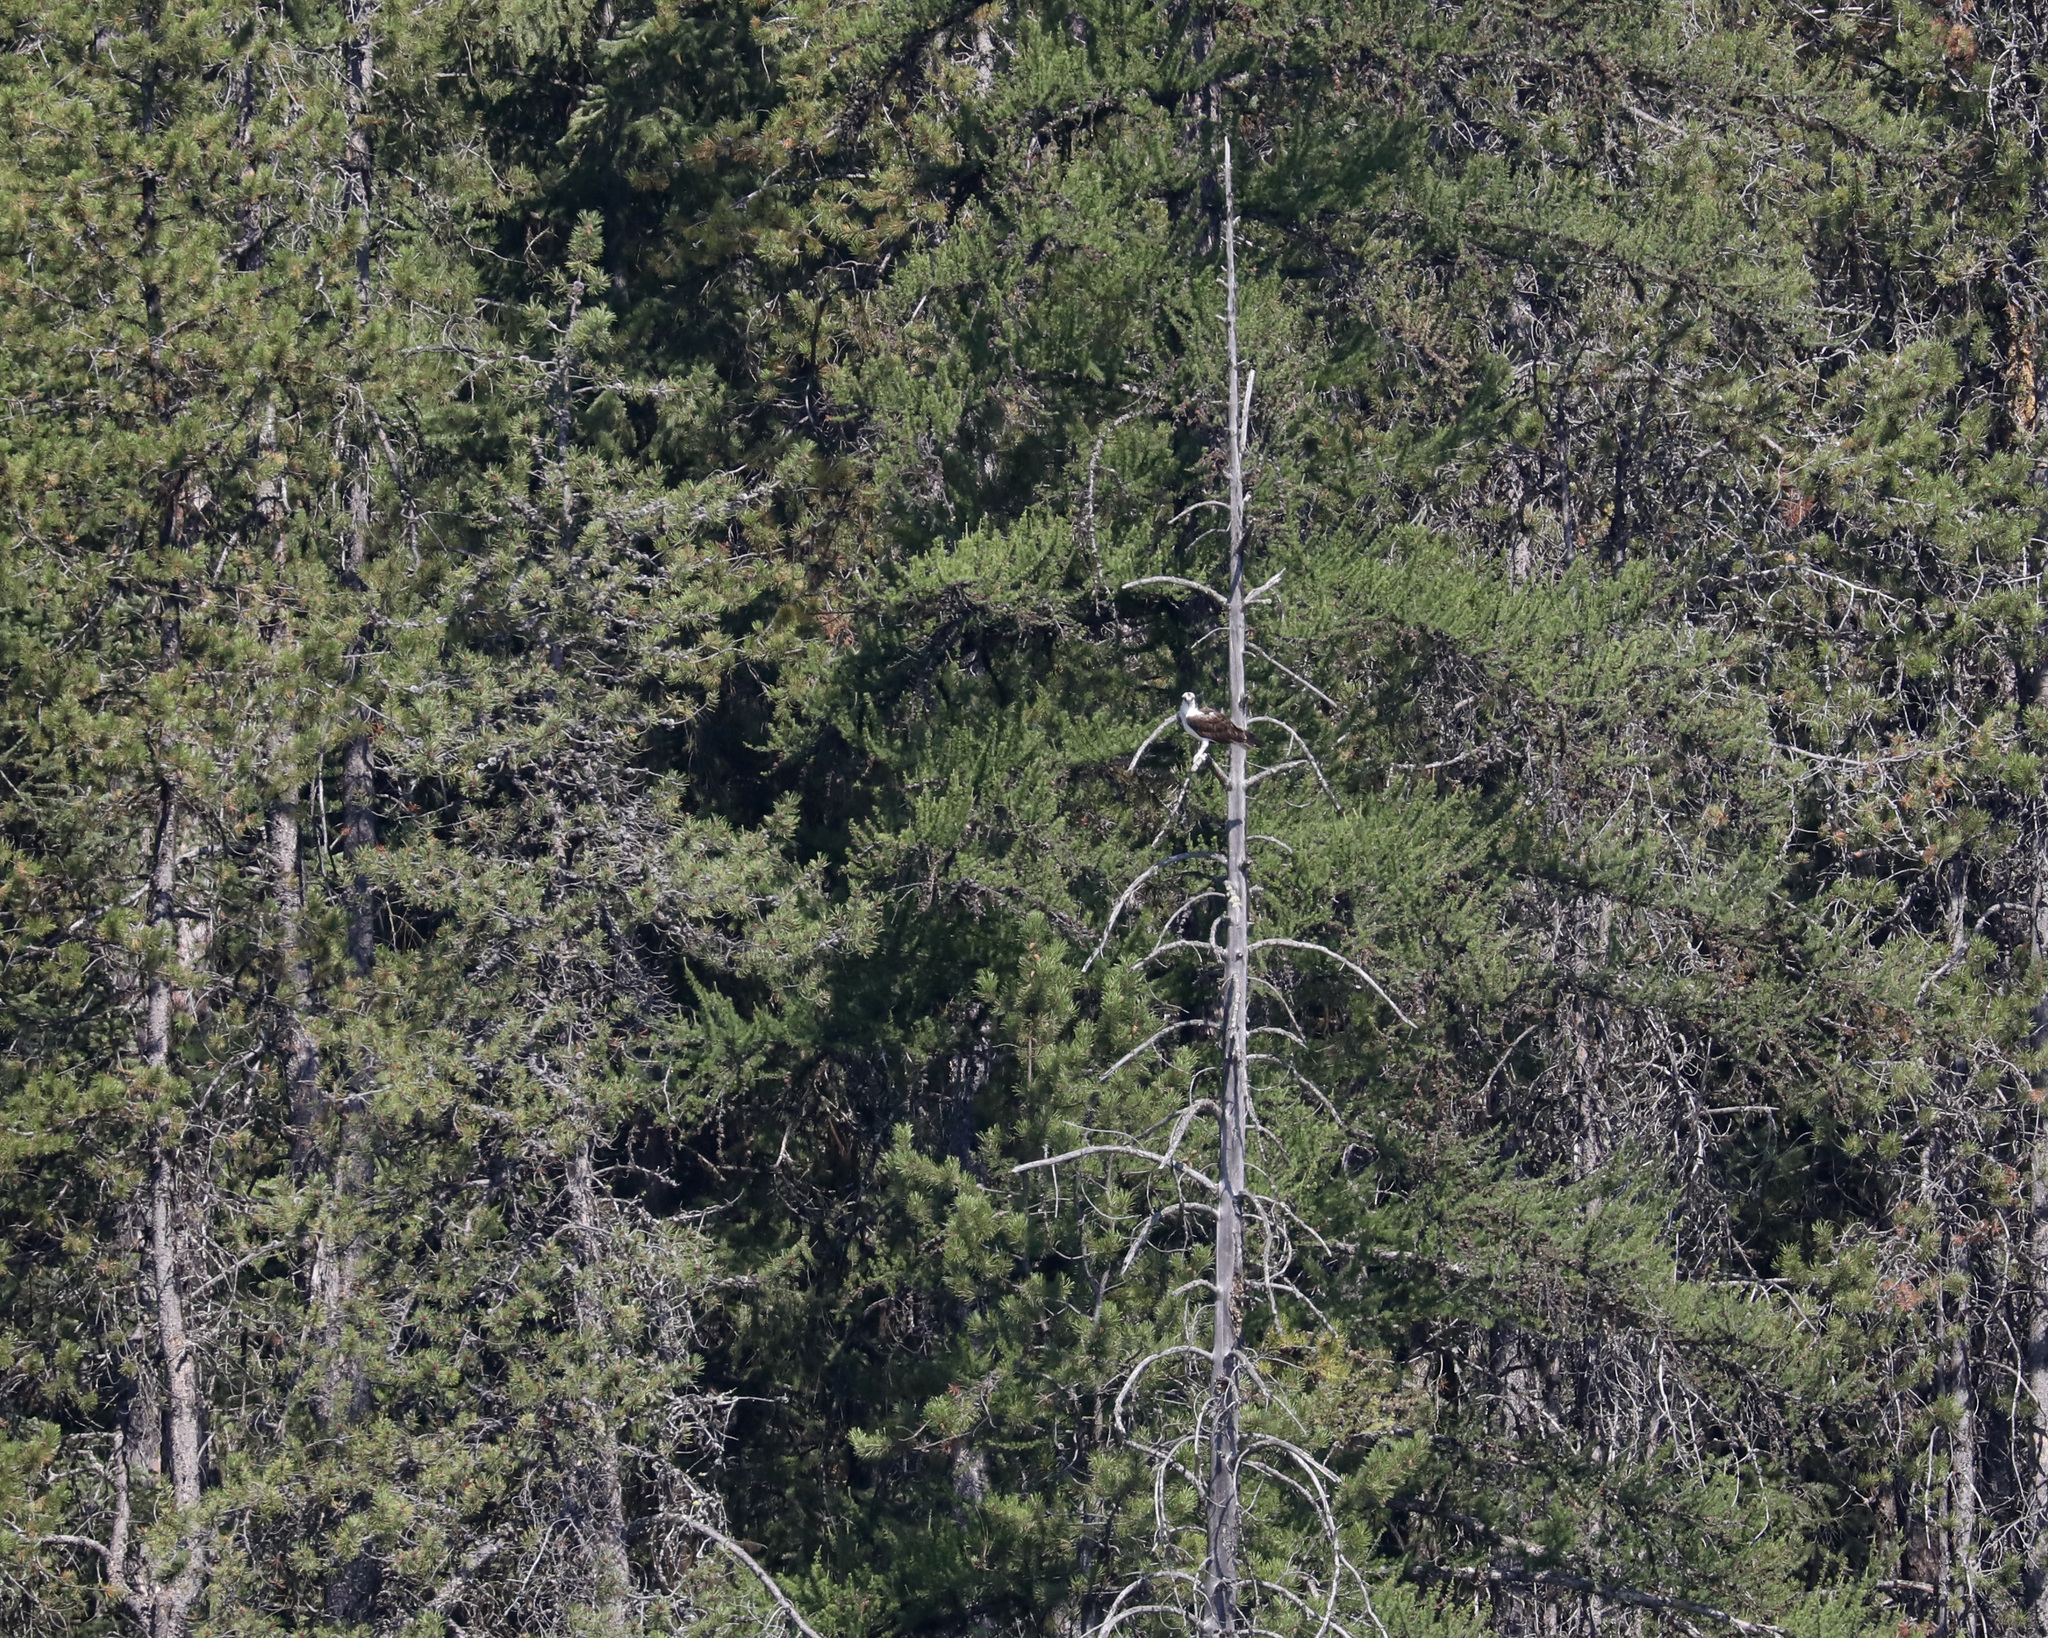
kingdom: Animalia
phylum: Chordata
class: Aves
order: Accipitriformes
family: Pandionidae
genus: Pandion
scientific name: Pandion haliaetus
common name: Osprey
